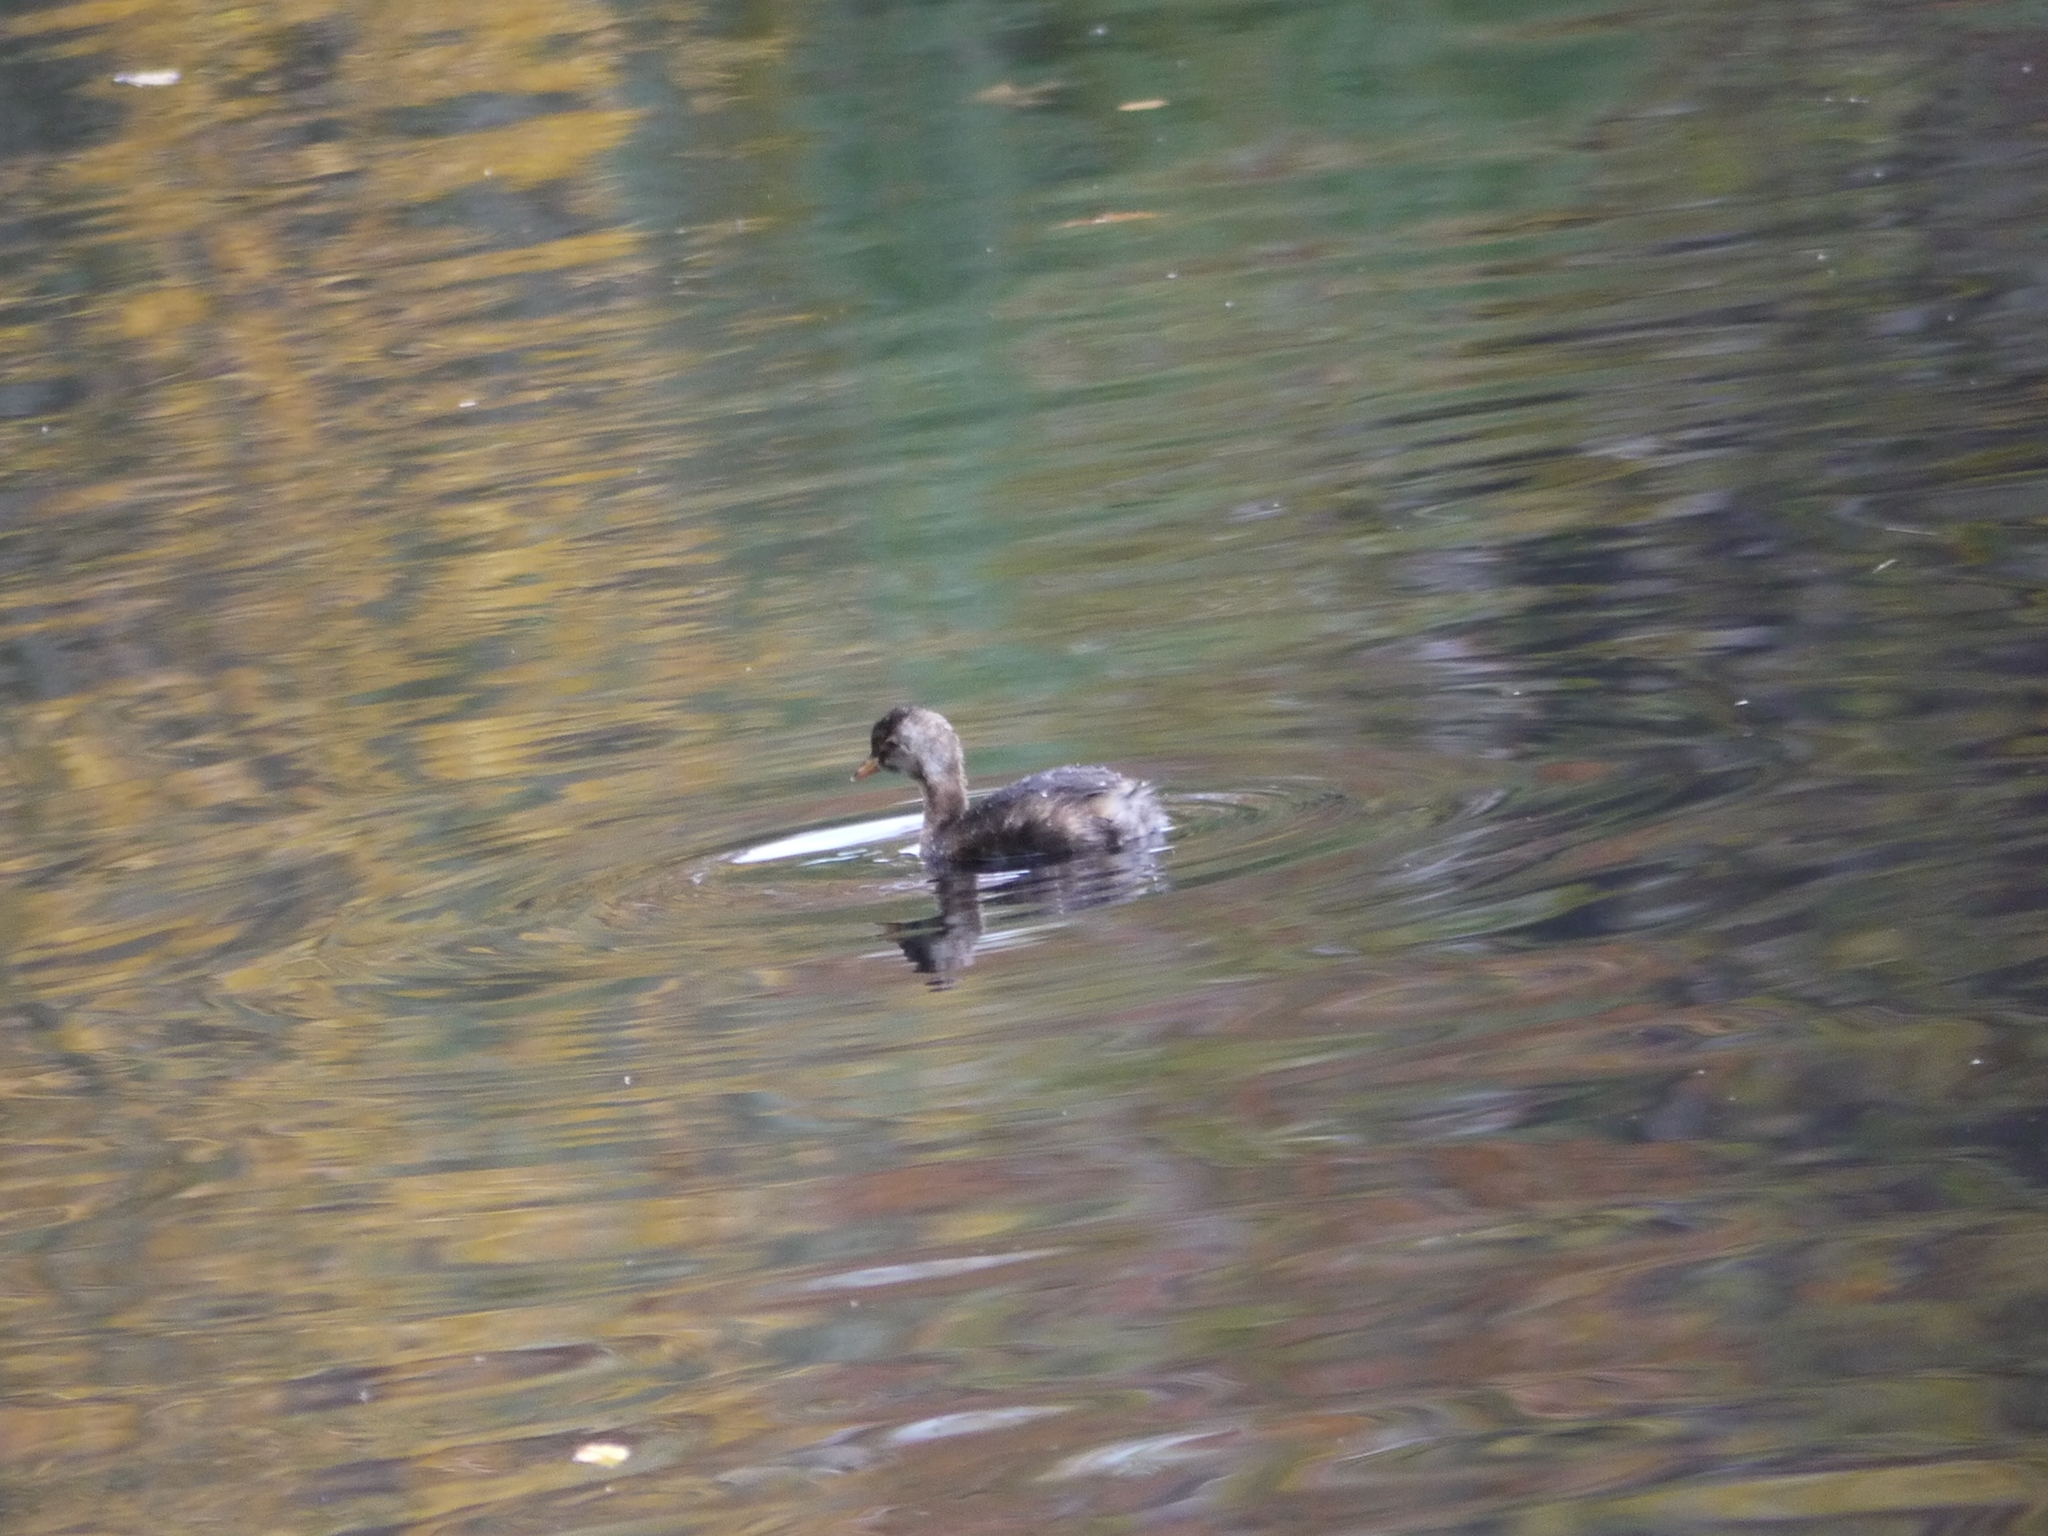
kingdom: Animalia
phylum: Chordata
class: Aves
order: Podicipediformes
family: Podicipedidae
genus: Tachybaptus
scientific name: Tachybaptus ruficollis
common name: Little grebe
